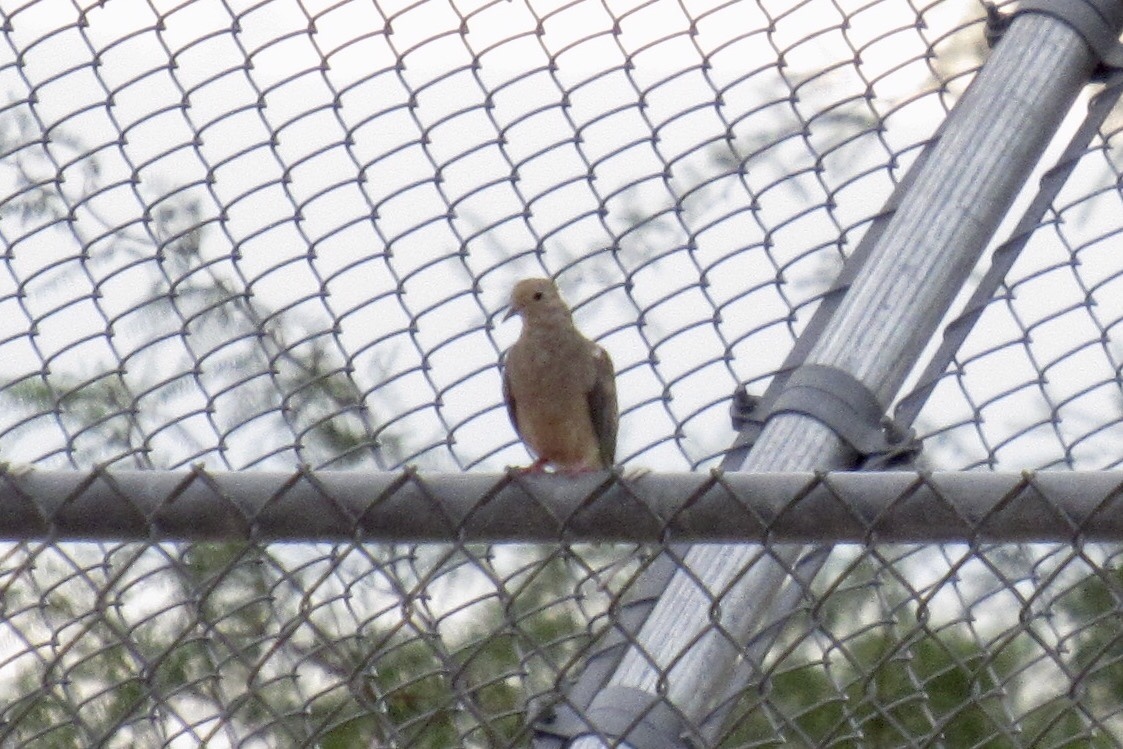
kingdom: Animalia
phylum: Chordata
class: Aves
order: Columbiformes
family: Columbidae
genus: Zenaida
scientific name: Zenaida macroura
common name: Mourning dove
